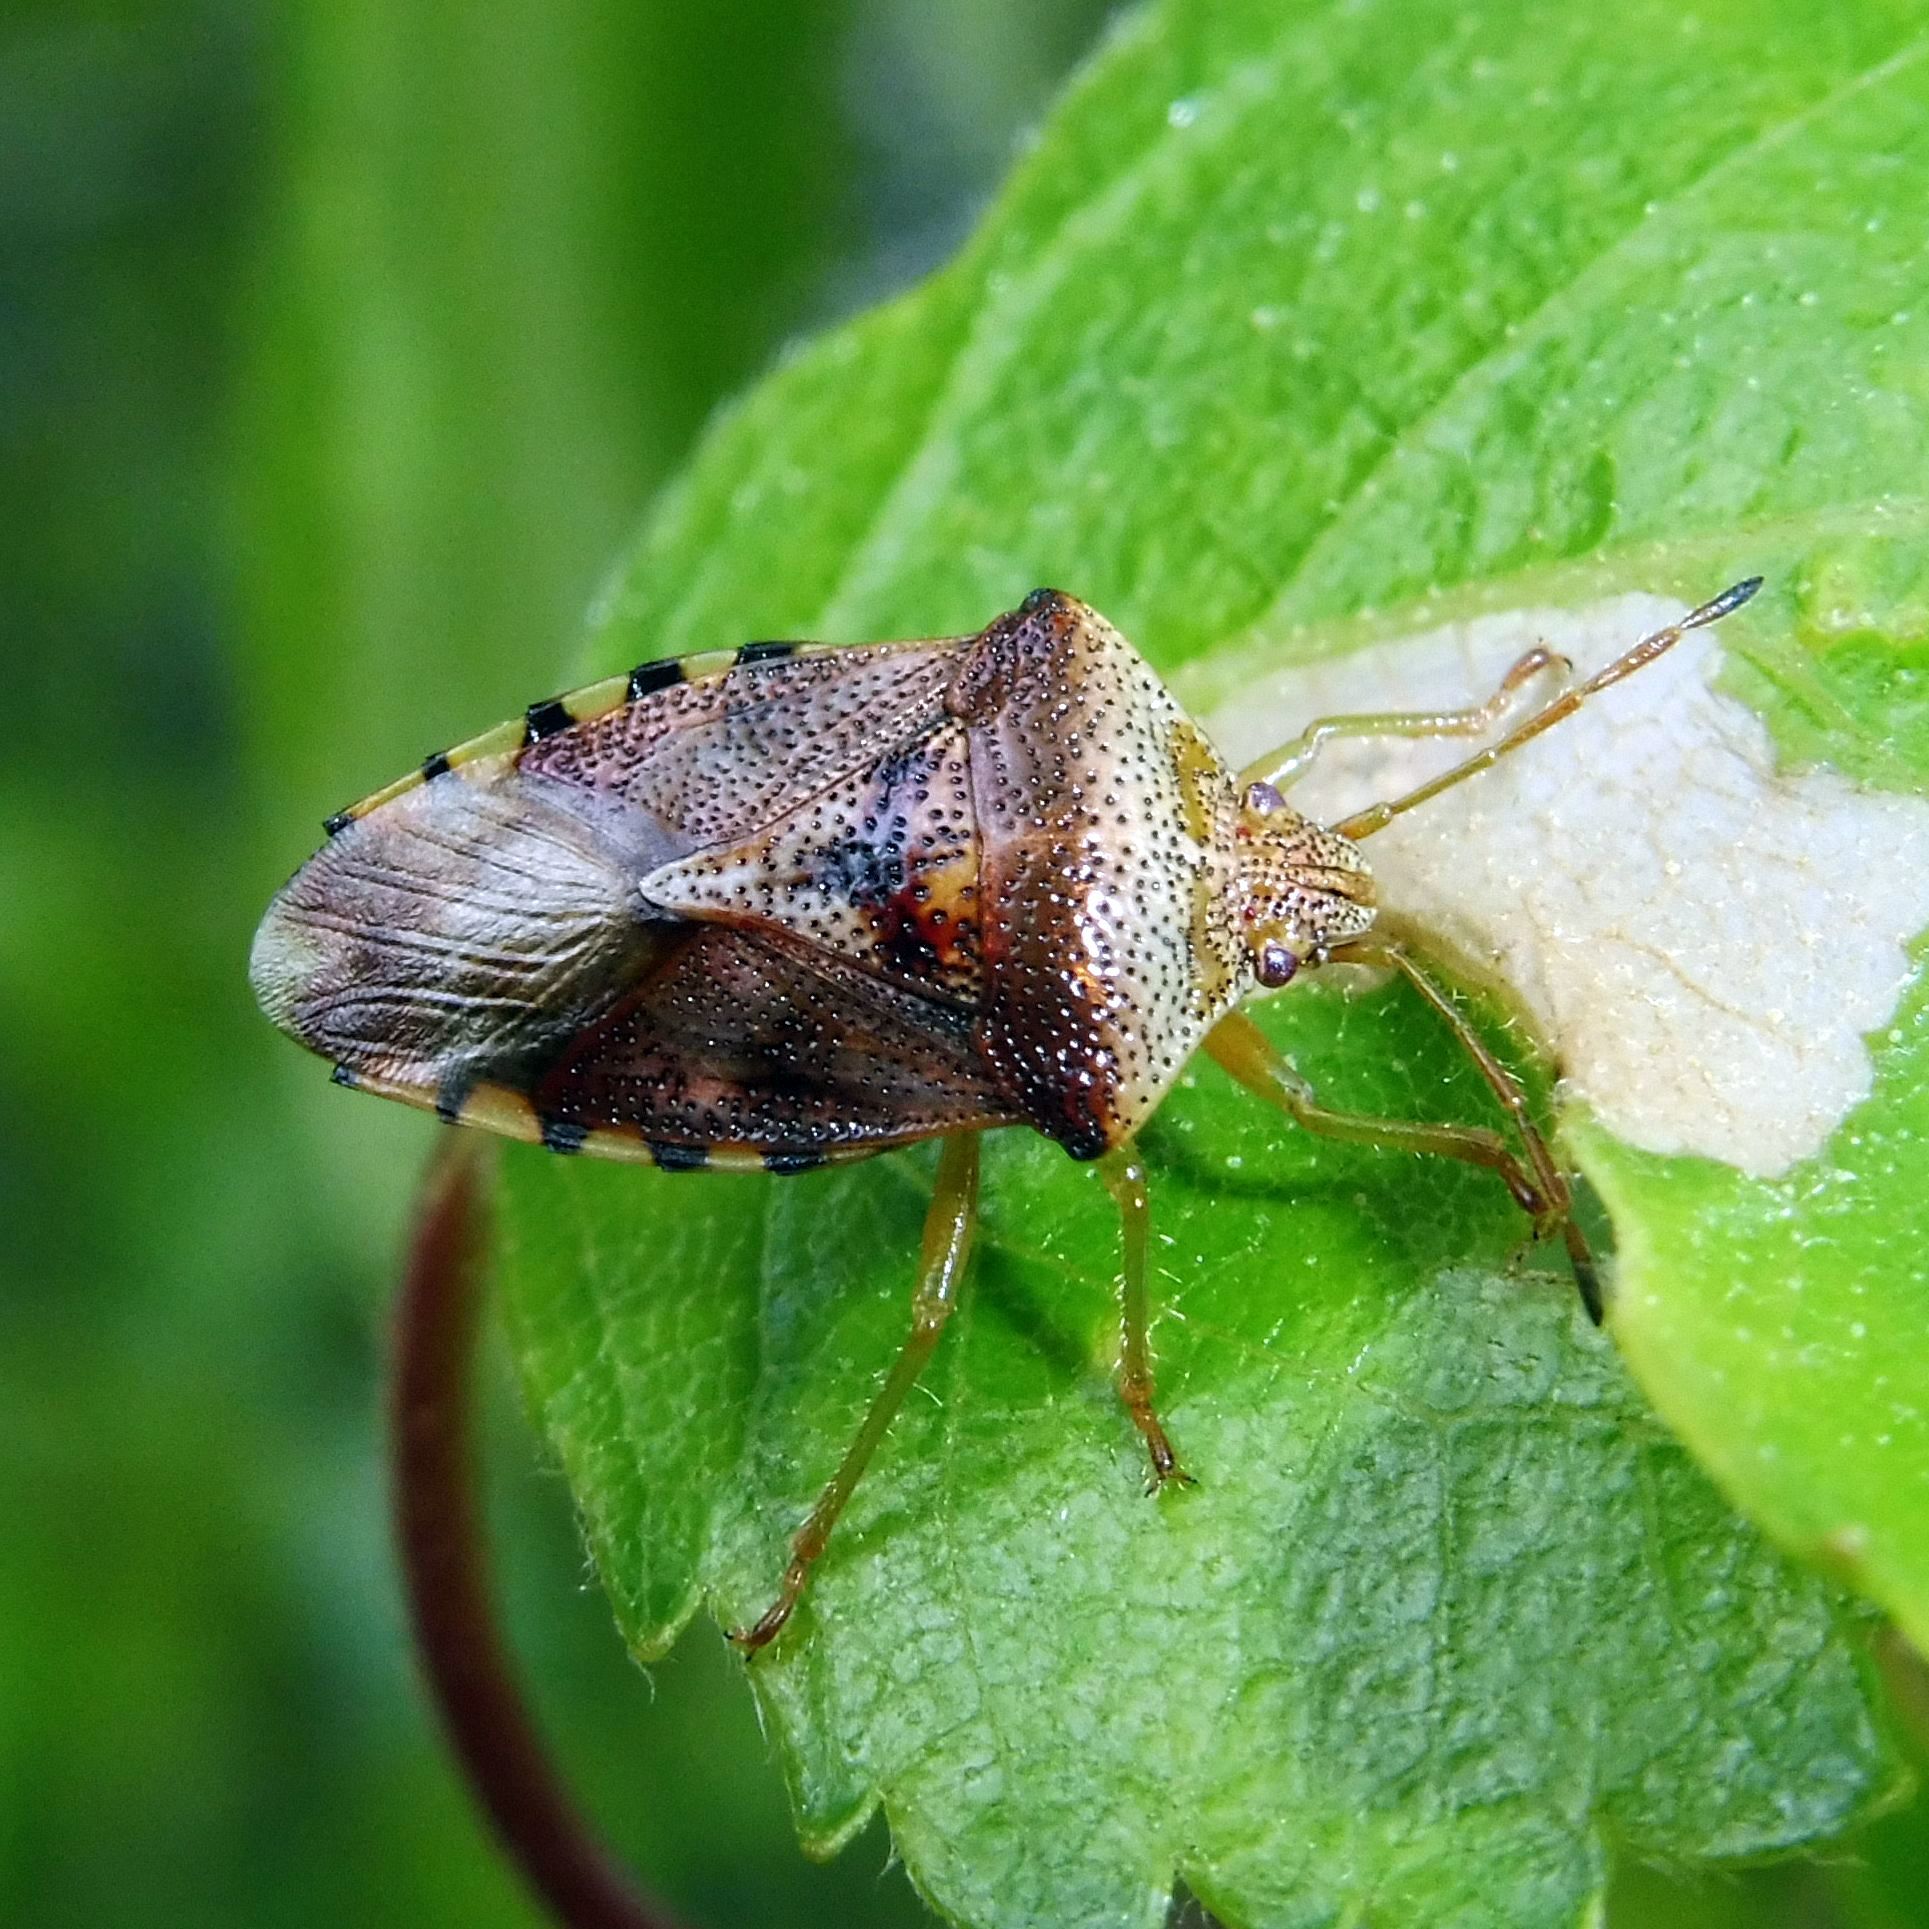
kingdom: Animalia
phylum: Arthropoda
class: Insecta
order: Hemiptera
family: Acanthosomatidae
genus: Elasmucha
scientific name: Elasmucha grisea
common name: Parent bug
